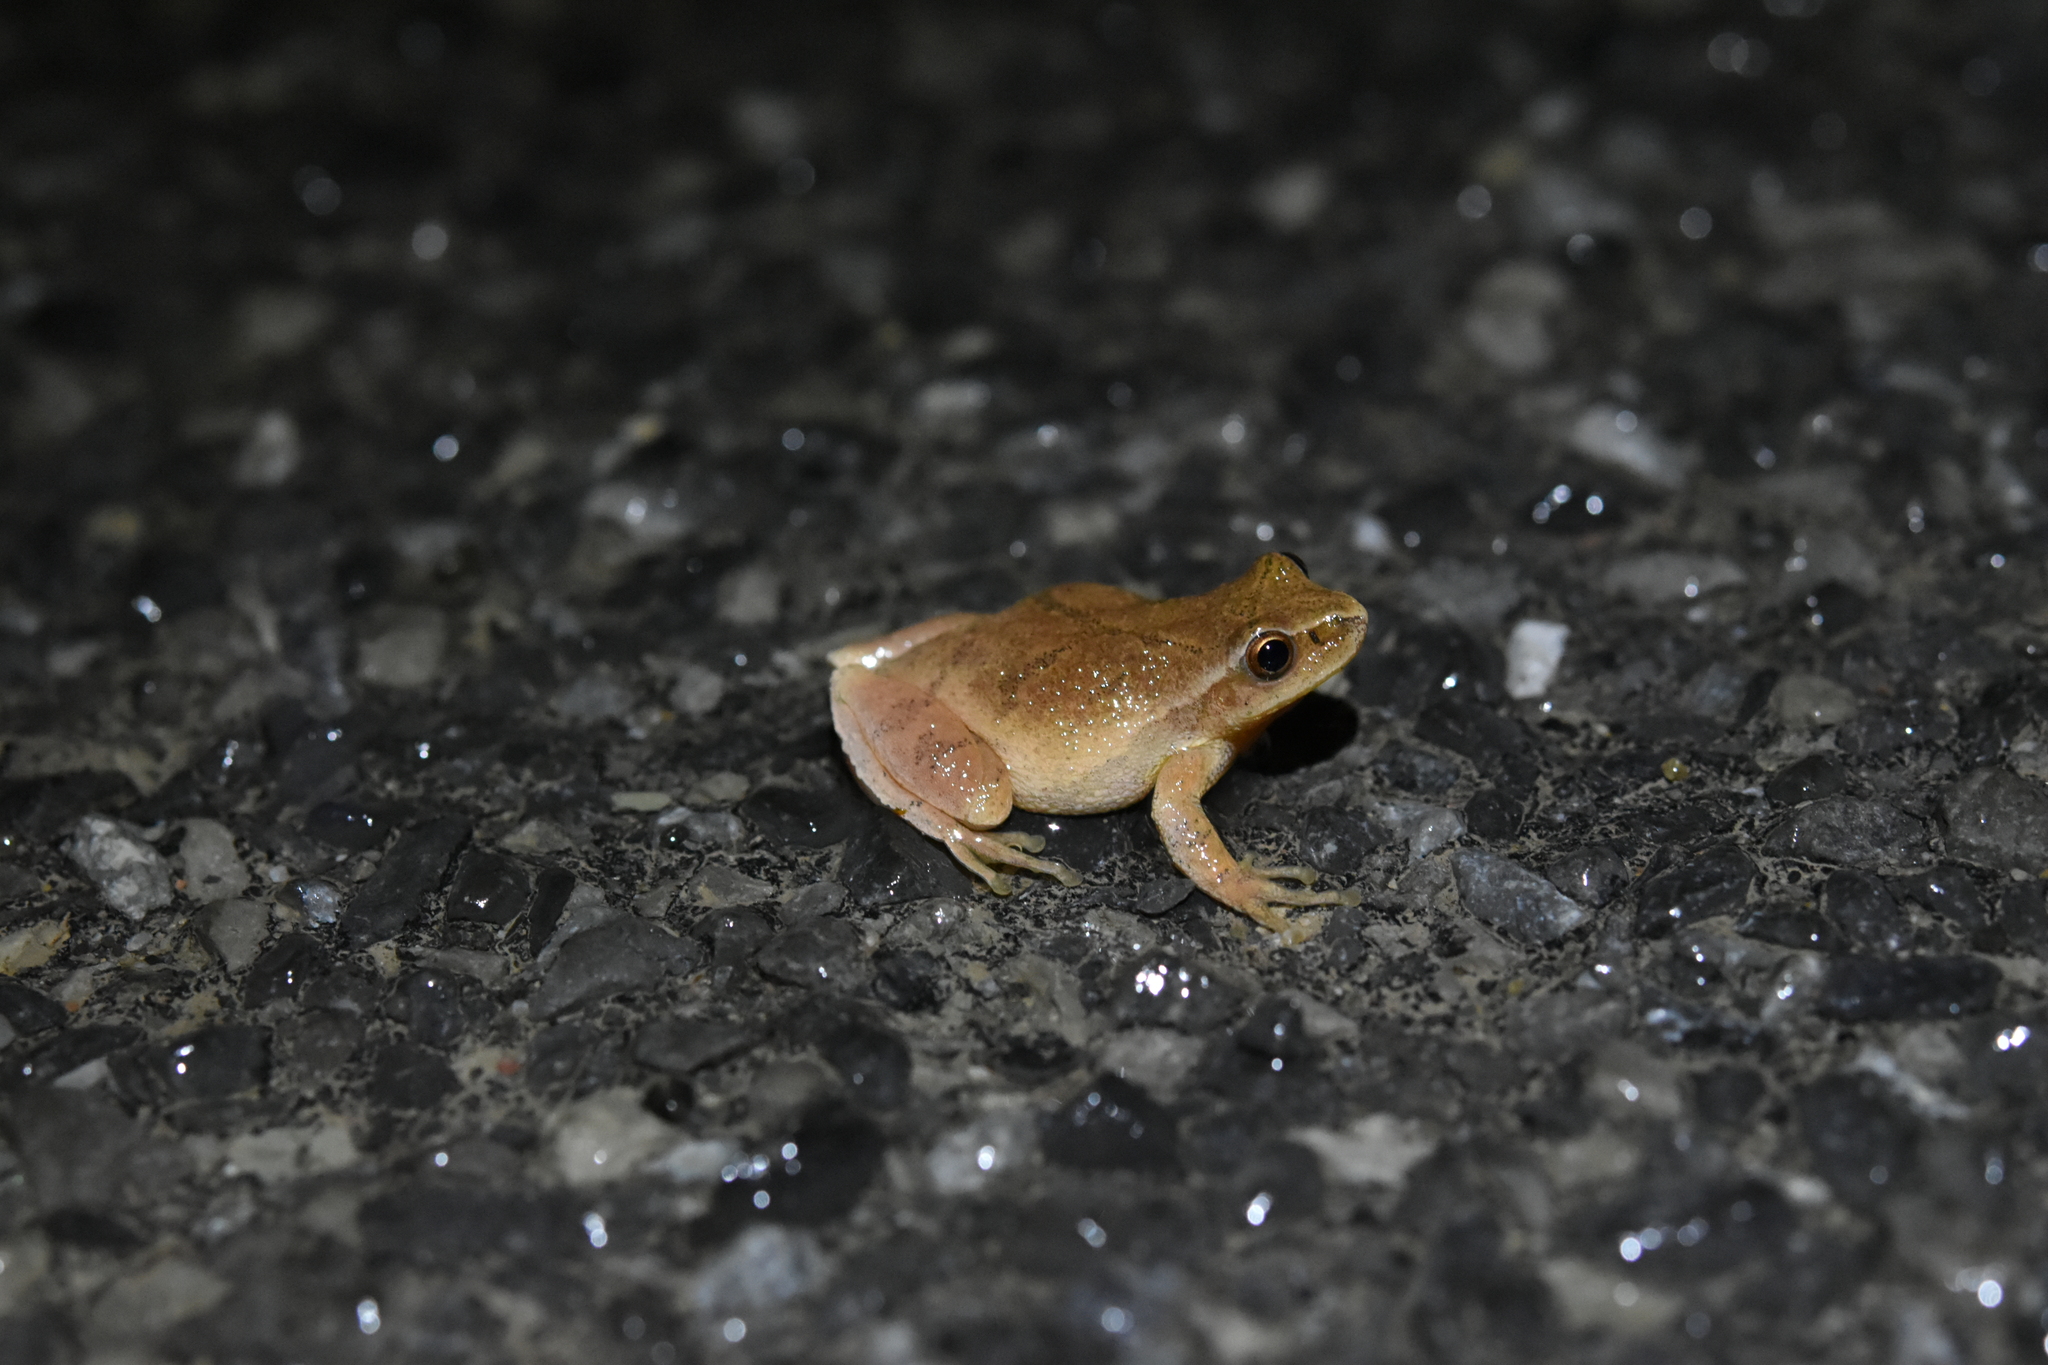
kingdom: Animalia
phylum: Chordata
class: Amphibia
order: Anura
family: Hylidae
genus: Pseudacris
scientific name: Pseudacris crucifer
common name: Spring peeper
